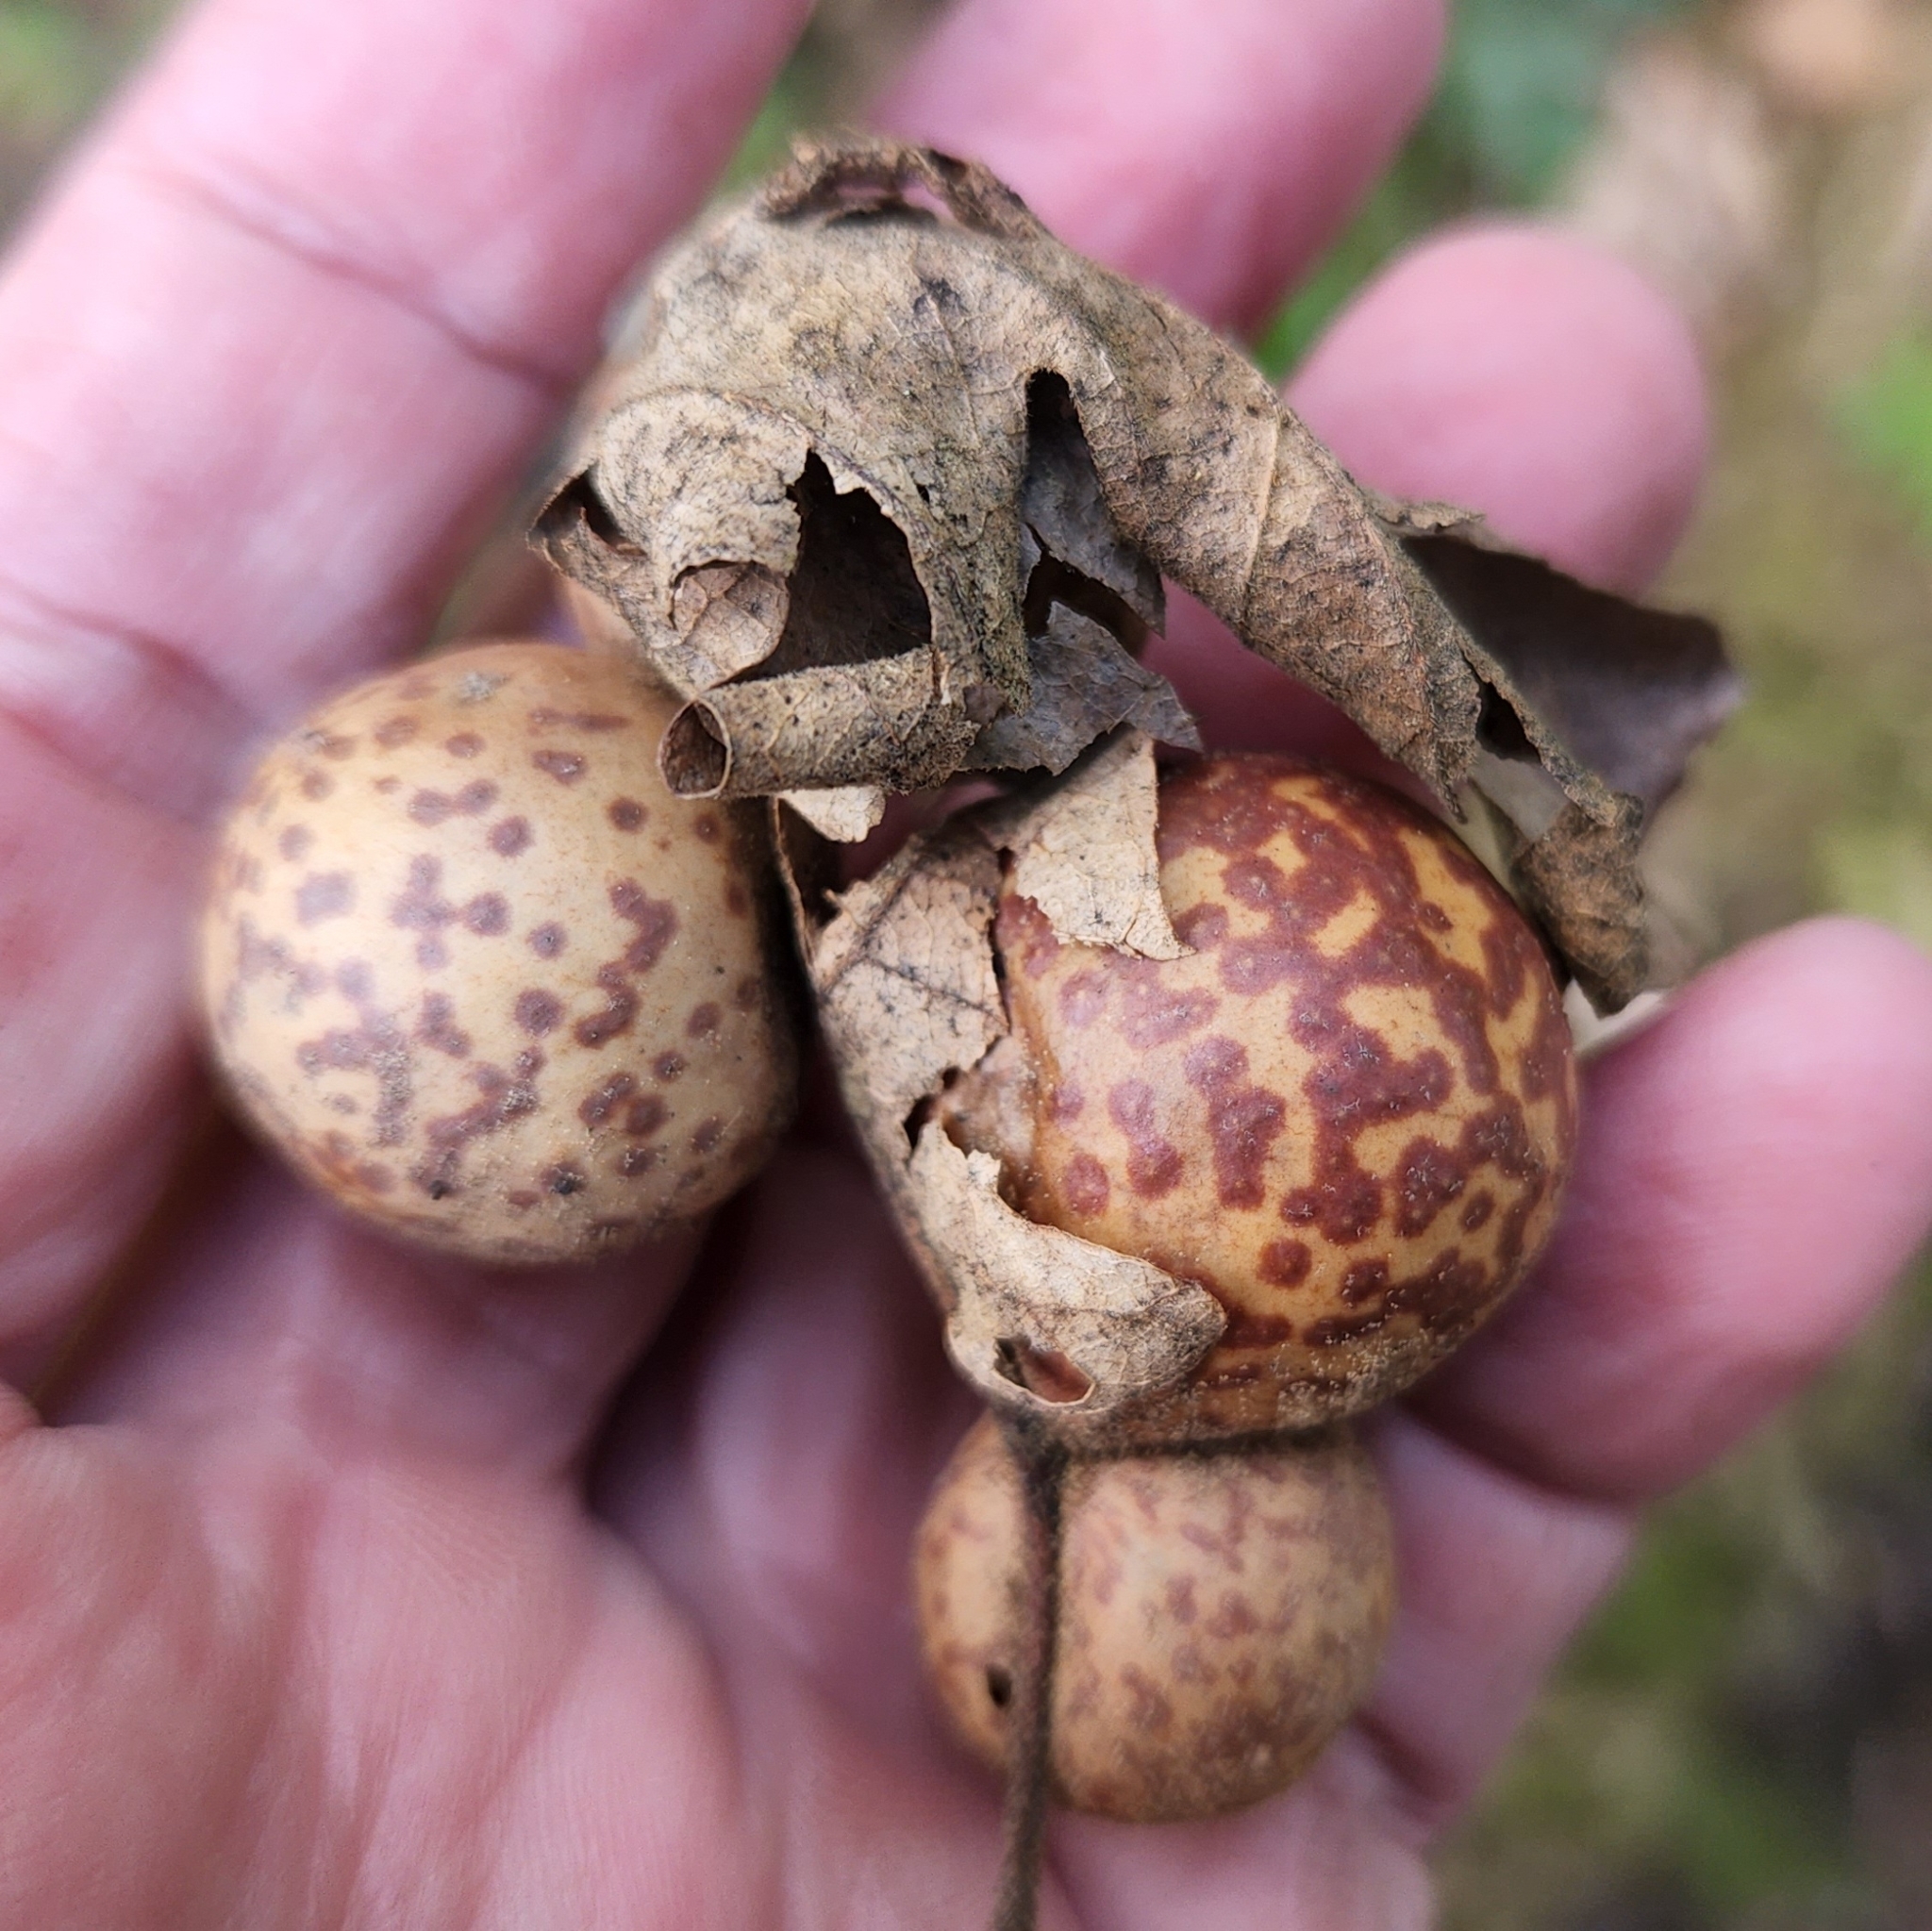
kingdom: Animalia
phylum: Arthropoda
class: Insecta
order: Hymenoptera
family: Cynipidae
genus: Cynips
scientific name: Cynips
